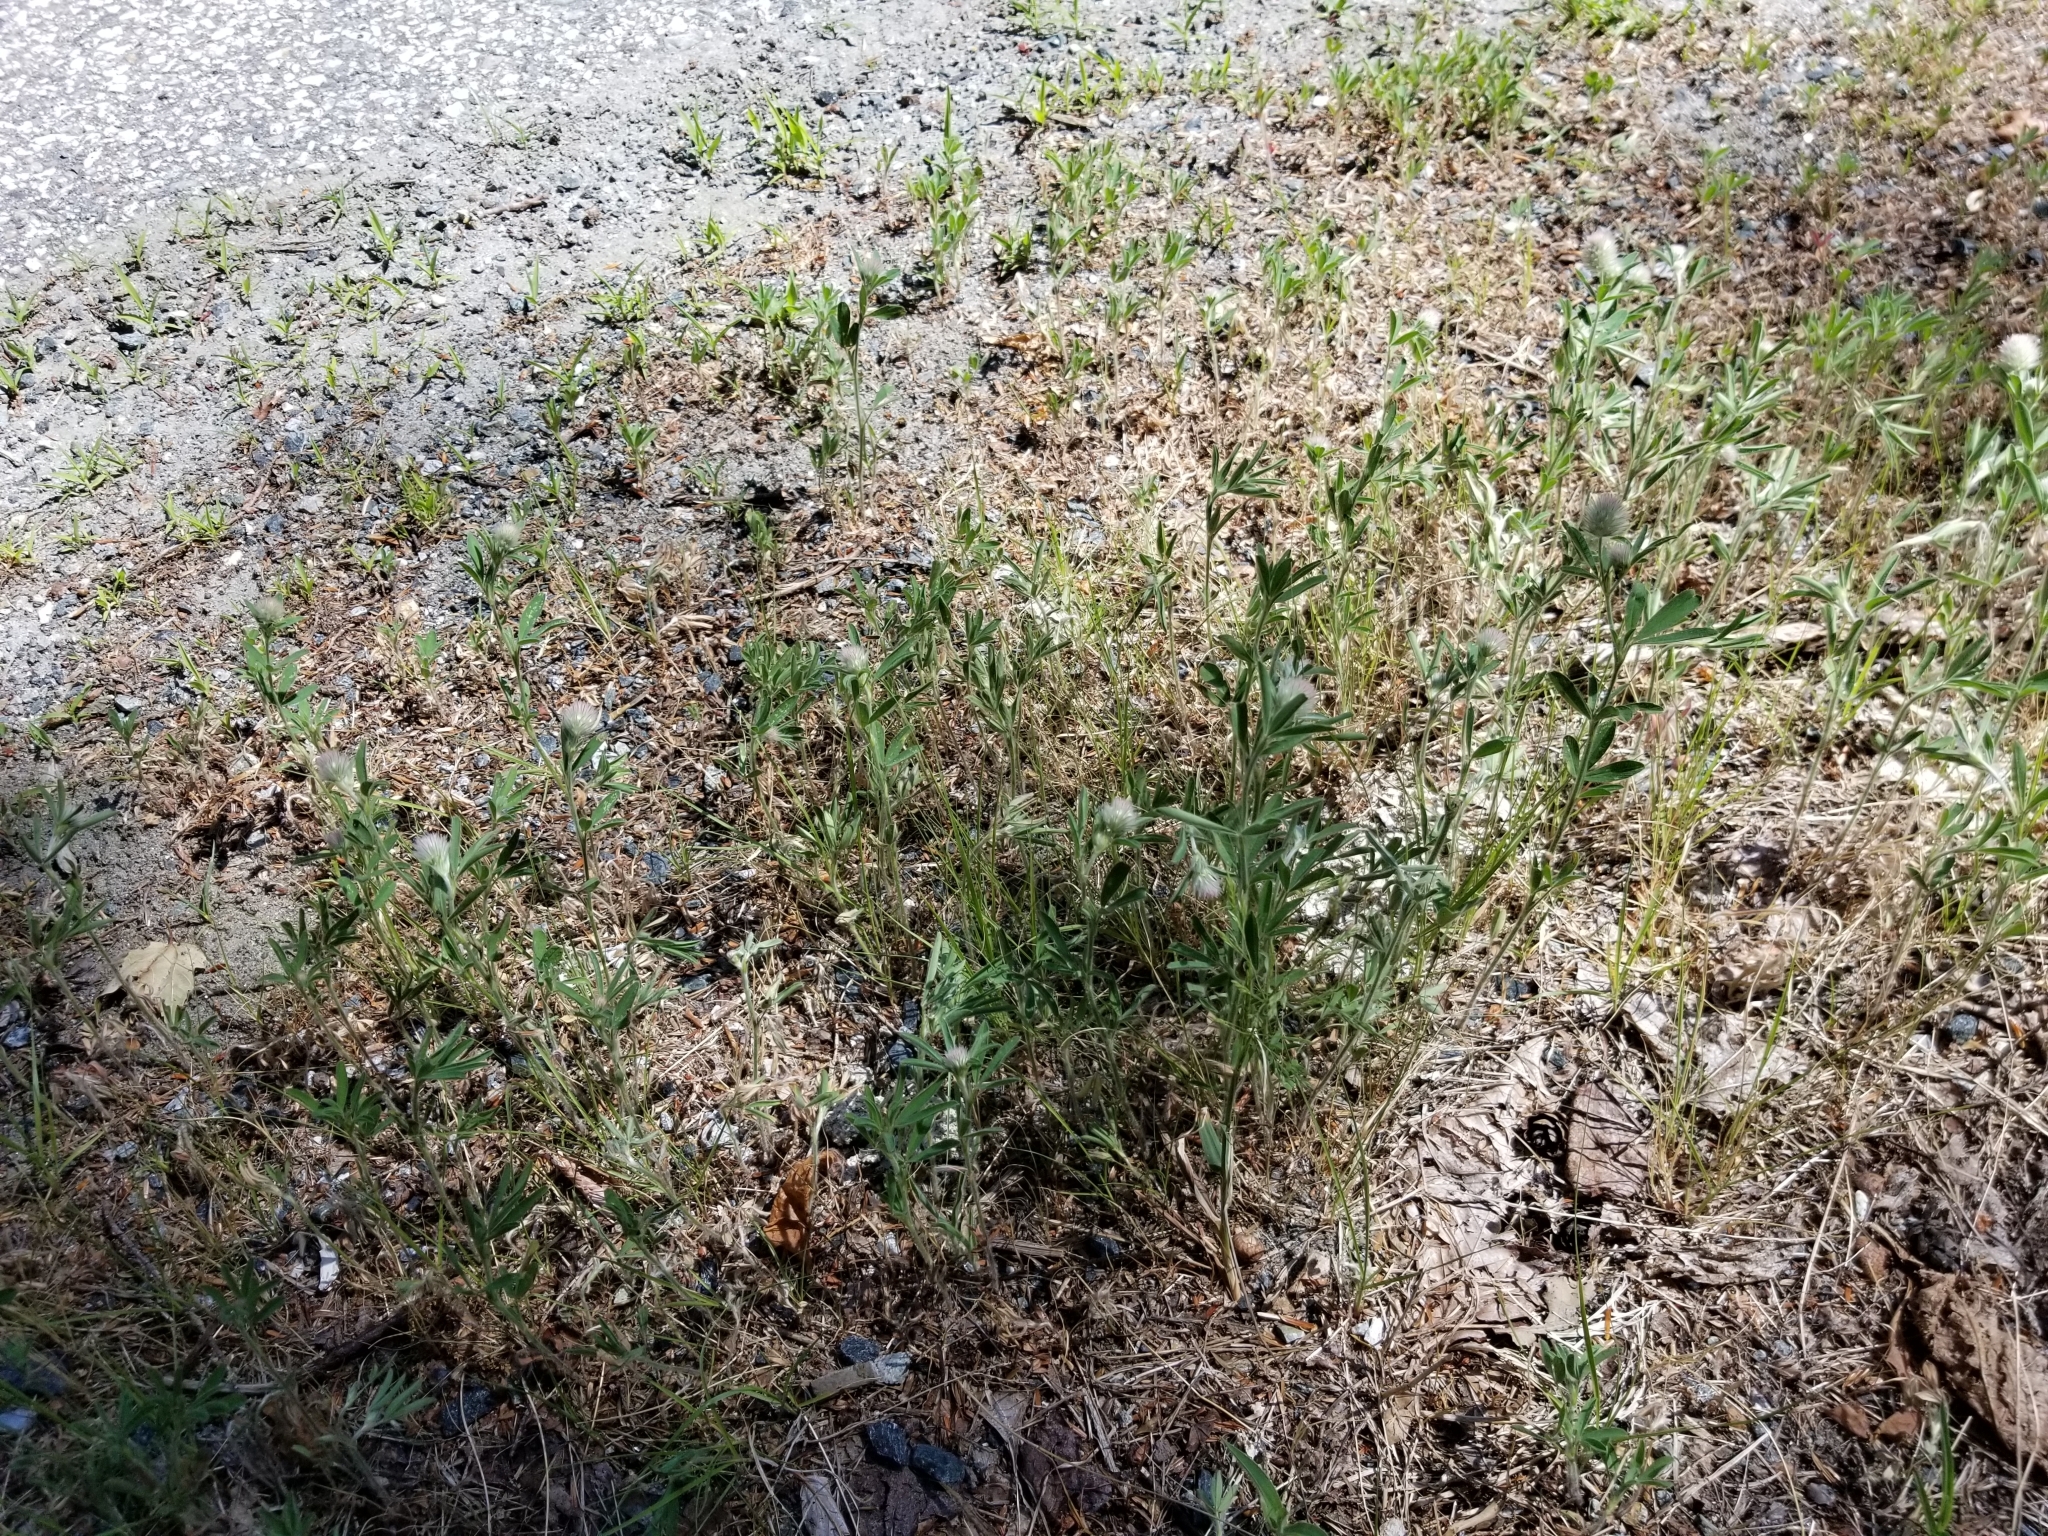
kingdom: Plantae
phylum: Tracheophyta
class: Magnoliopsida
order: Fabales
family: Fabaceae
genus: Trifolium
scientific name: Trifolium arvense
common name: Hare's-foot clover
